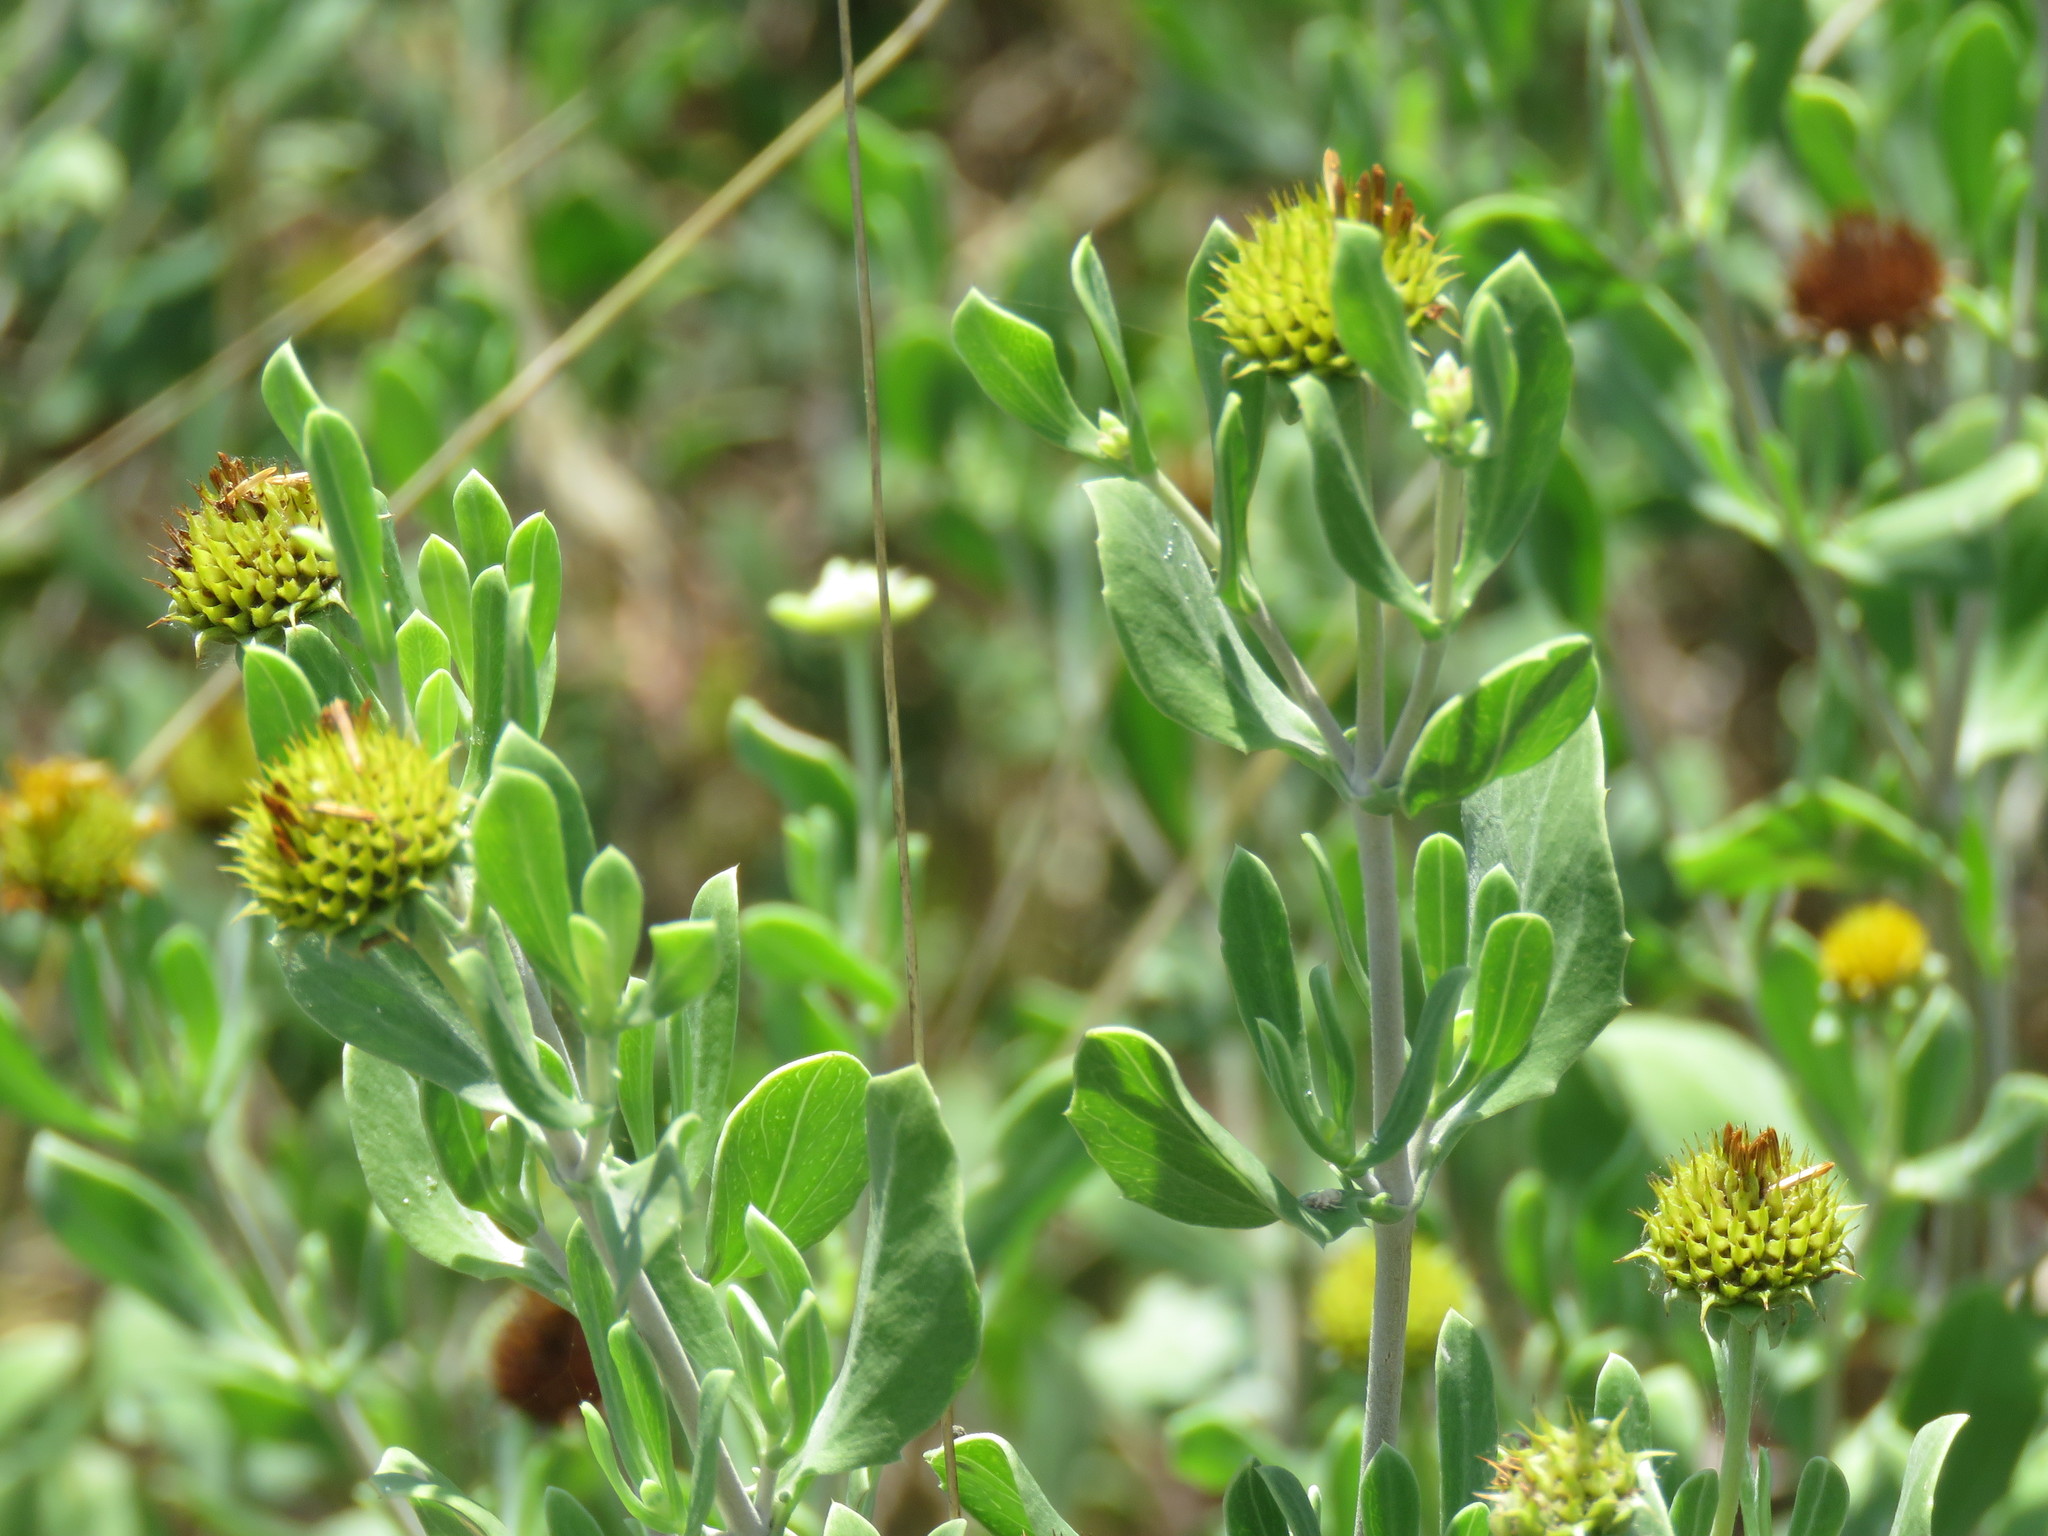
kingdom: Plantae
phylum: Tracheophyta
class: Magnoliopsida
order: Asterales
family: Asteraceae
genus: Borrichia
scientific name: Borrichia frutescens
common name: Sea oxeye
